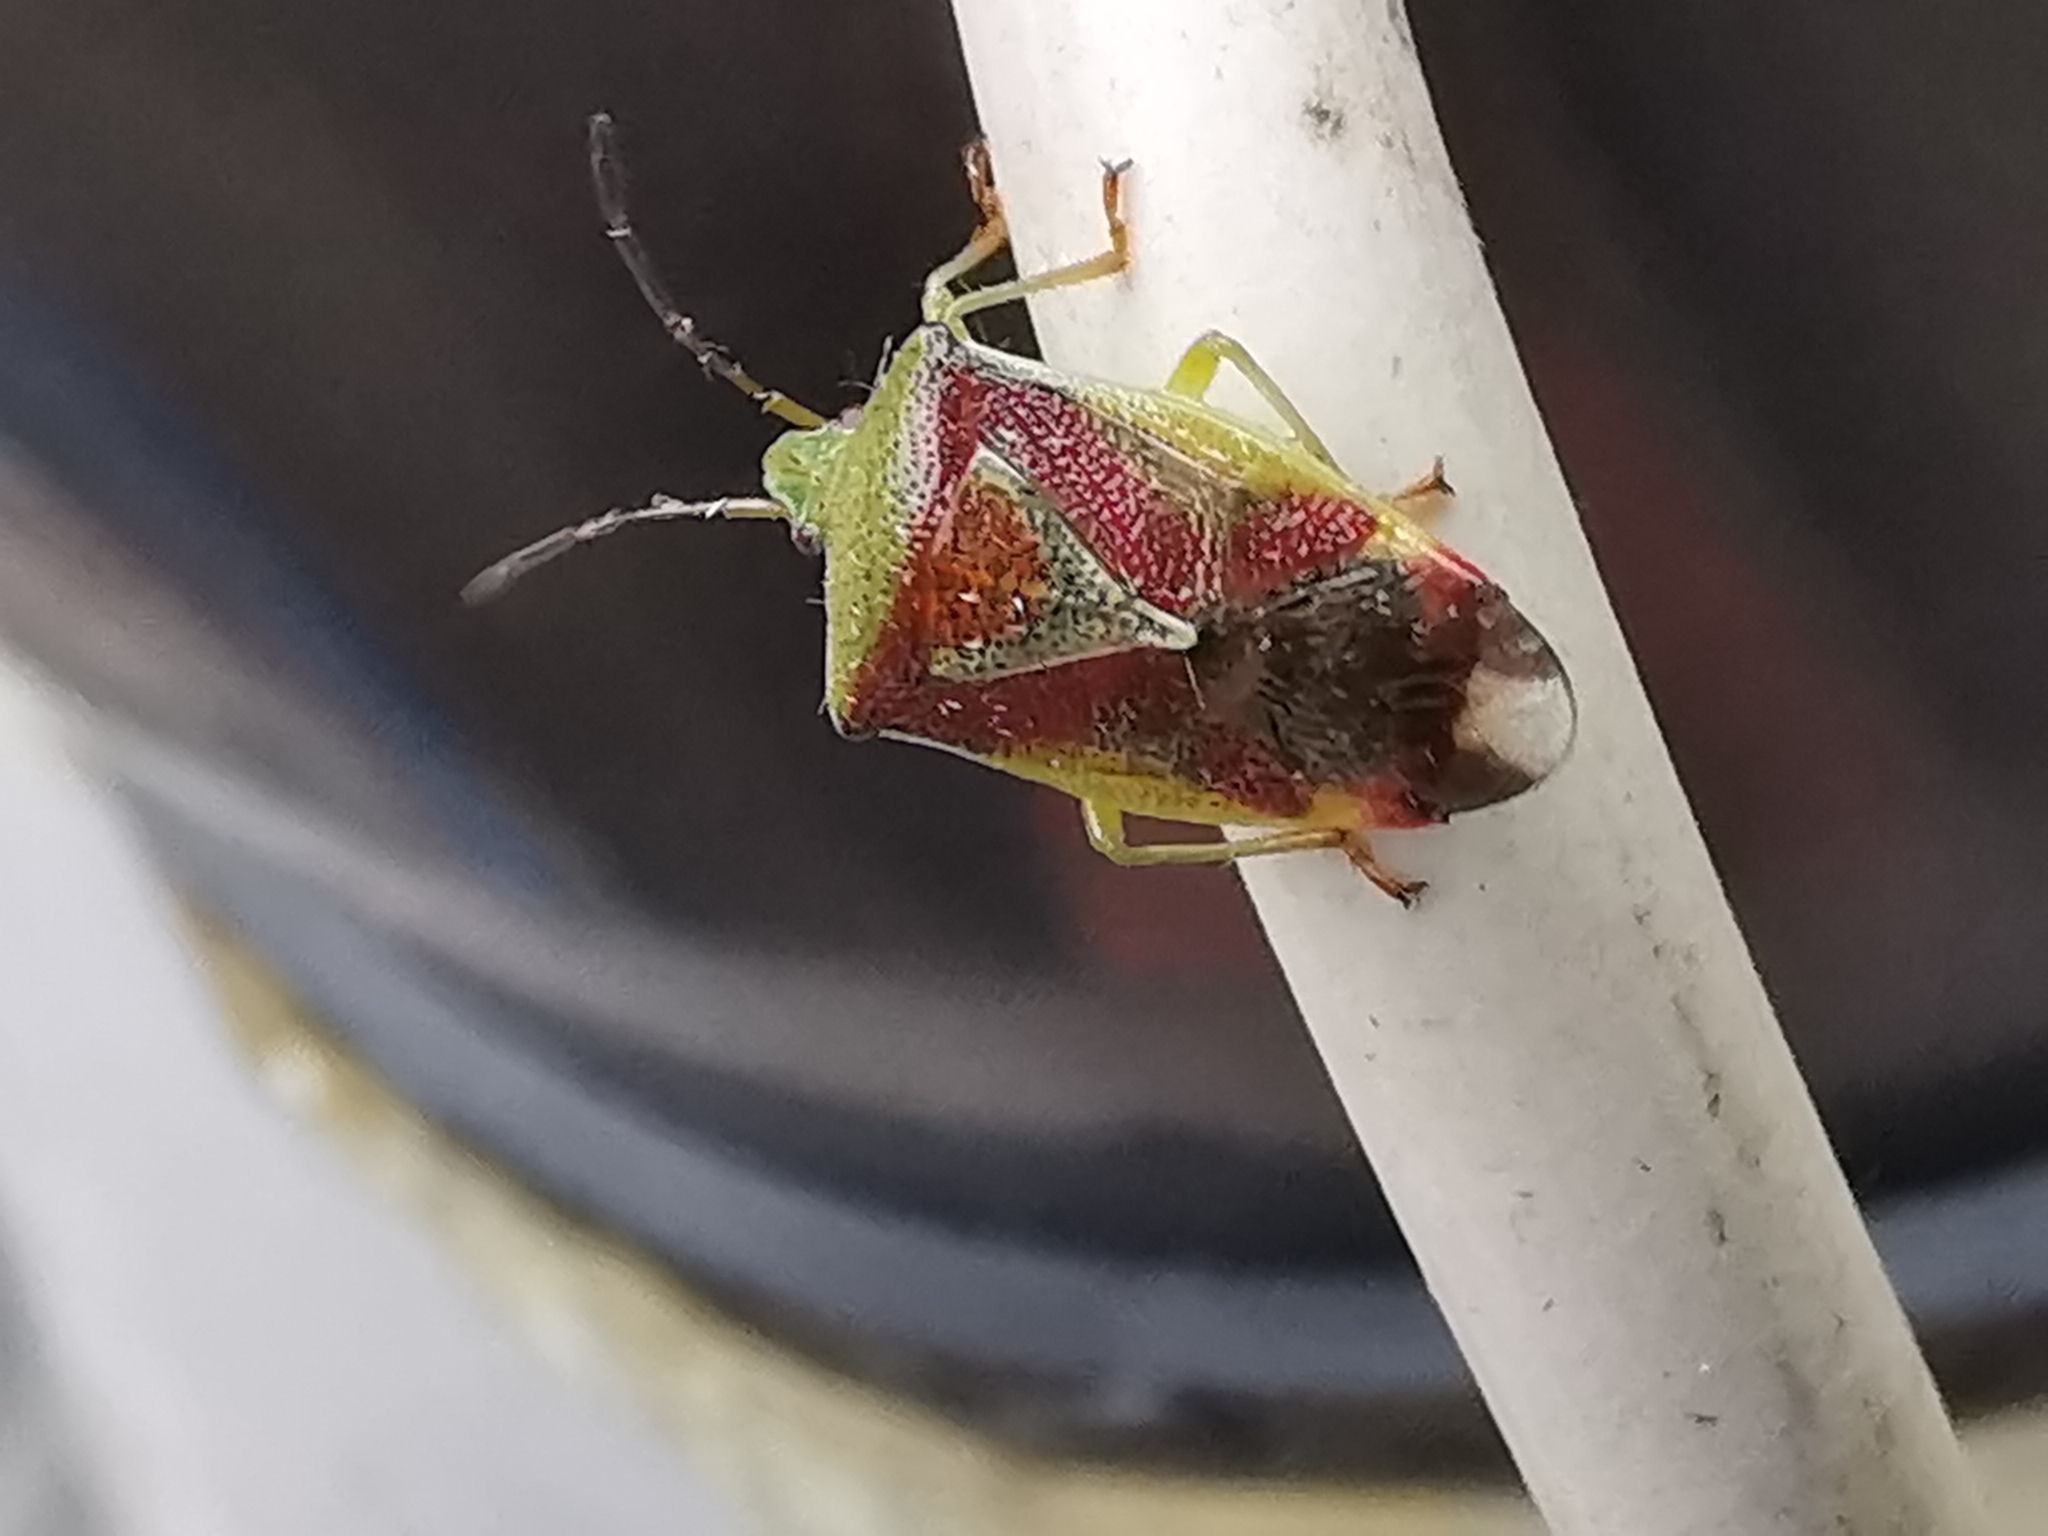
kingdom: Animalia
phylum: Arthropoda
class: Insecta
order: Hemiptera
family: Acanthosomatidae
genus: Elasmostethus
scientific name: Elasmostethus interstinctus
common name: Birch shieldbug
